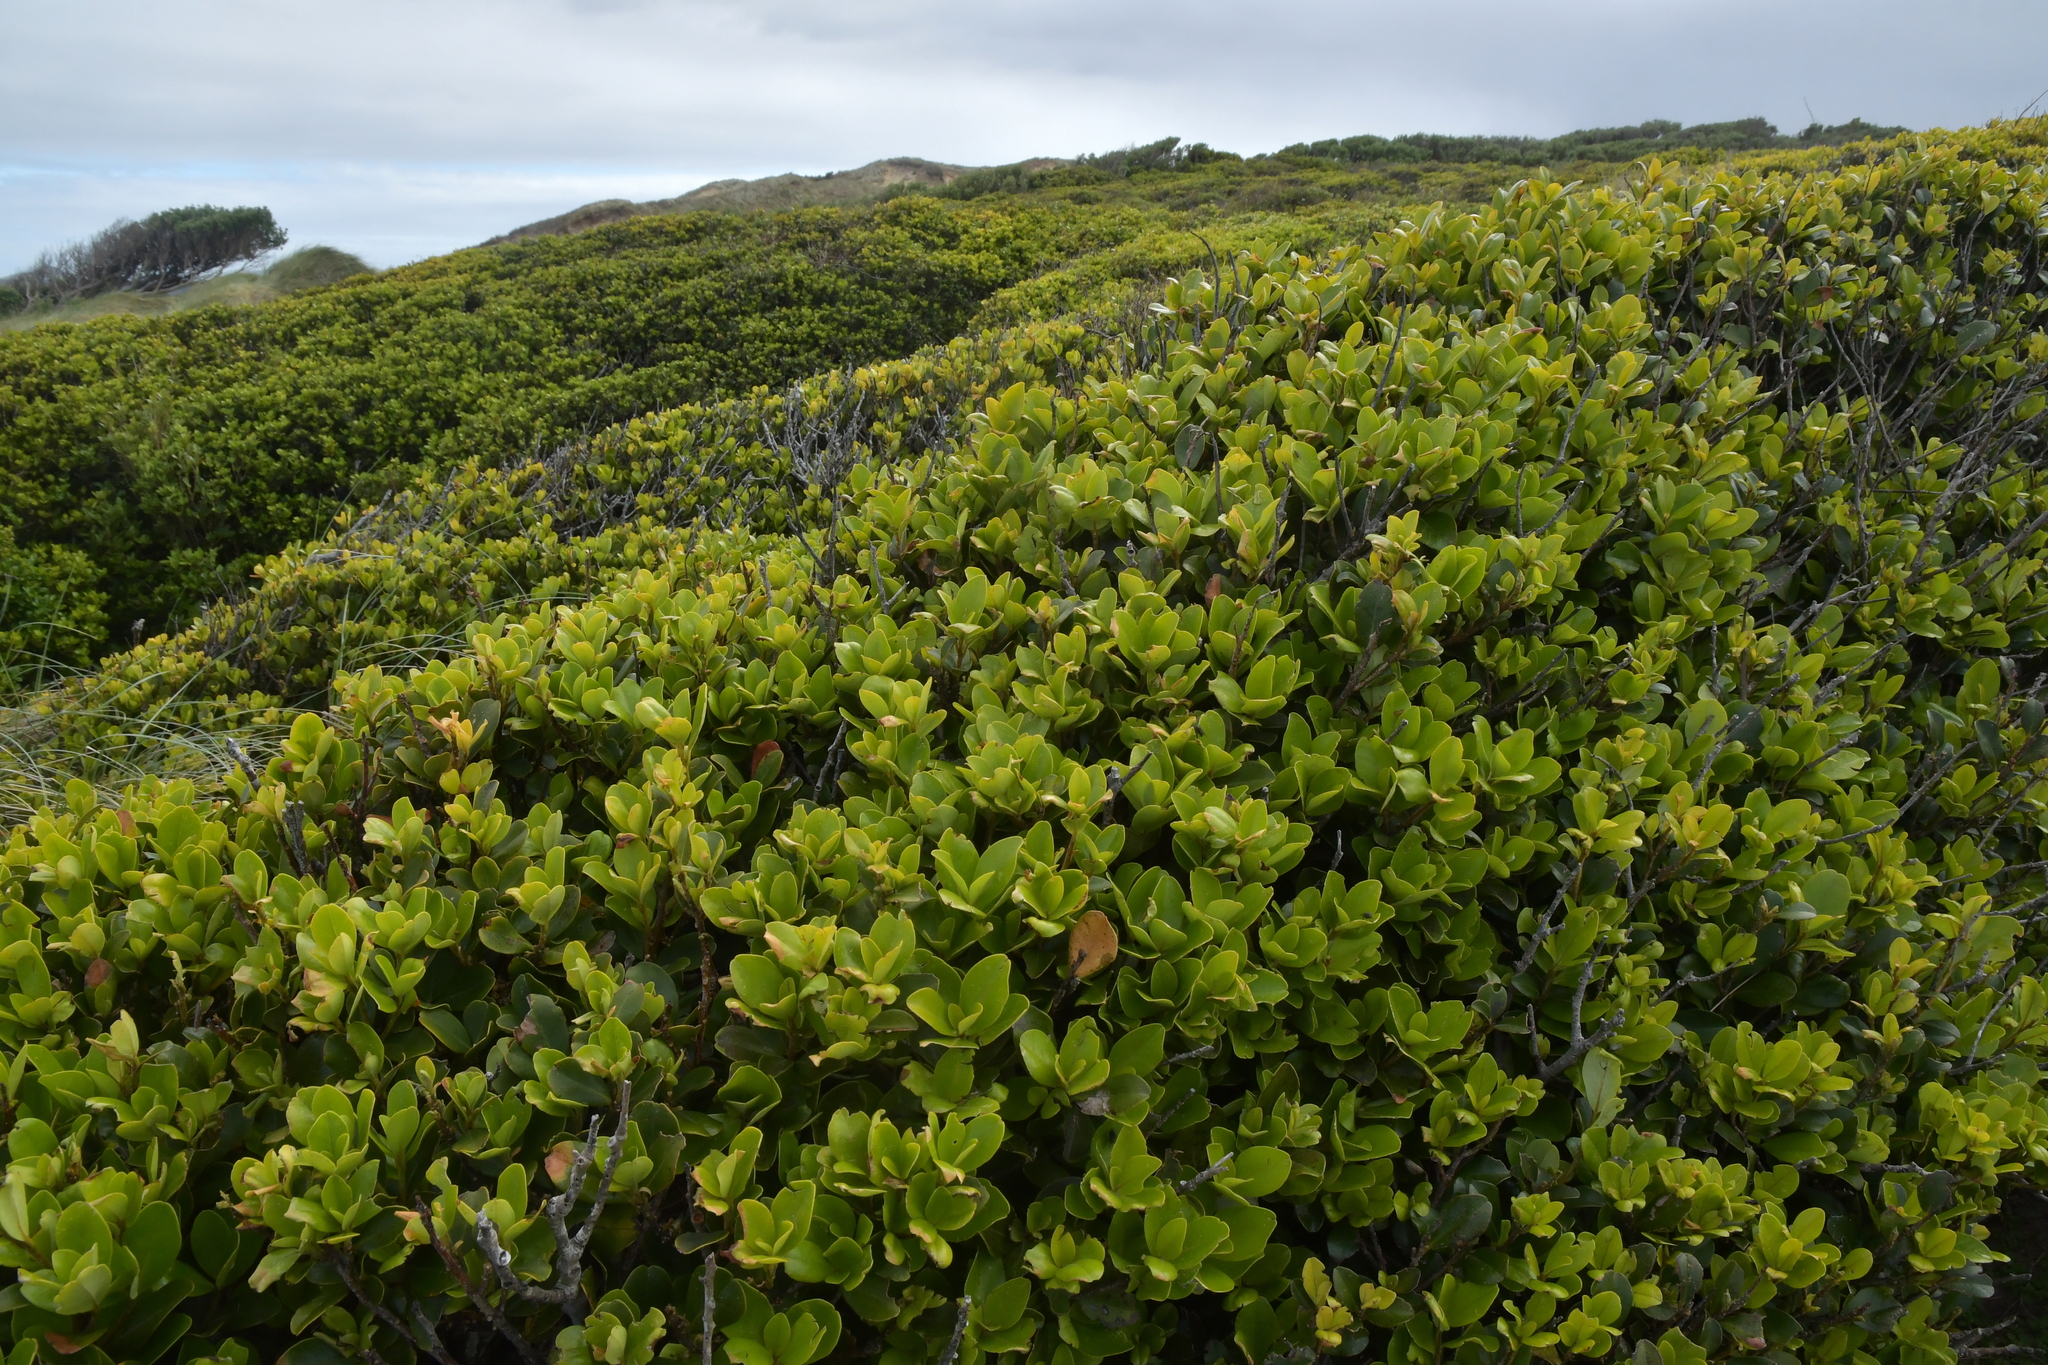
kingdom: Plantae
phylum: Tracheophyta
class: Magnoliopsida
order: Ericales
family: Primulaceae
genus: Myrsine
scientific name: Myrsine chathamica
